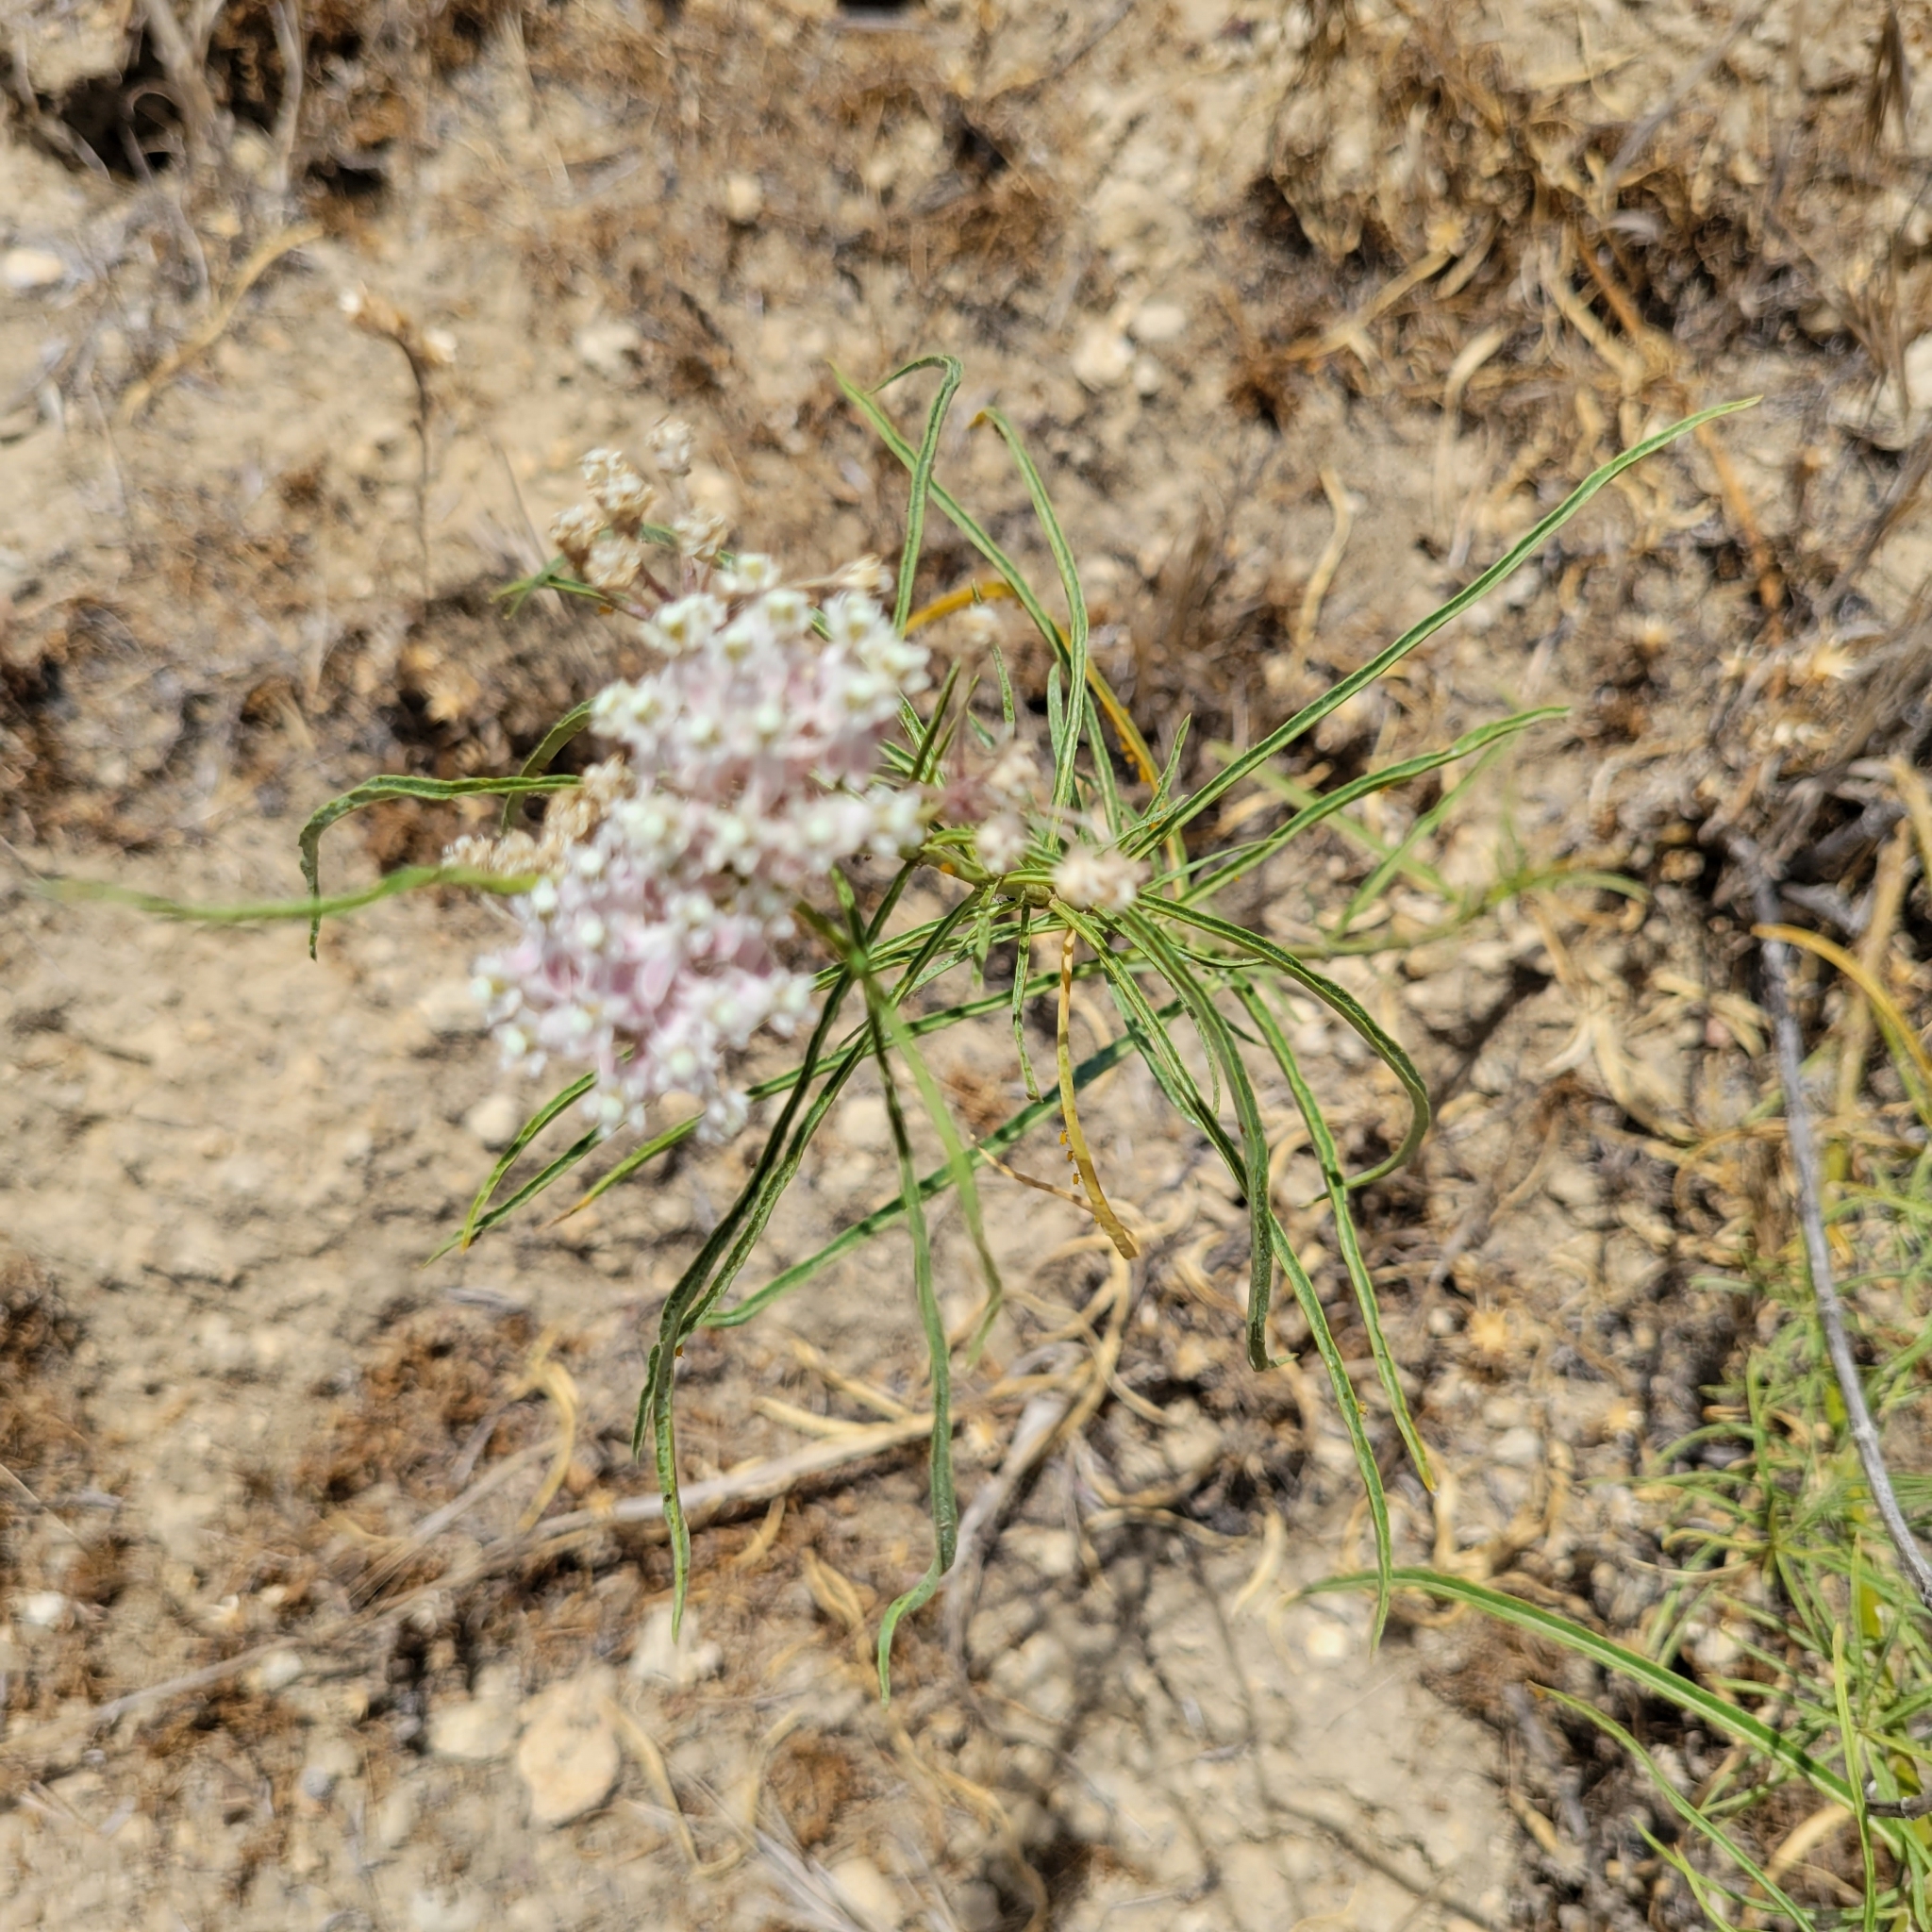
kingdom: Plantae
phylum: Tracheophyta
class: Magnoliopsida
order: Gentianales
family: Apocynaceae
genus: Asclepias
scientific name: Asclepias fascicularis
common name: Mexican milkweed
